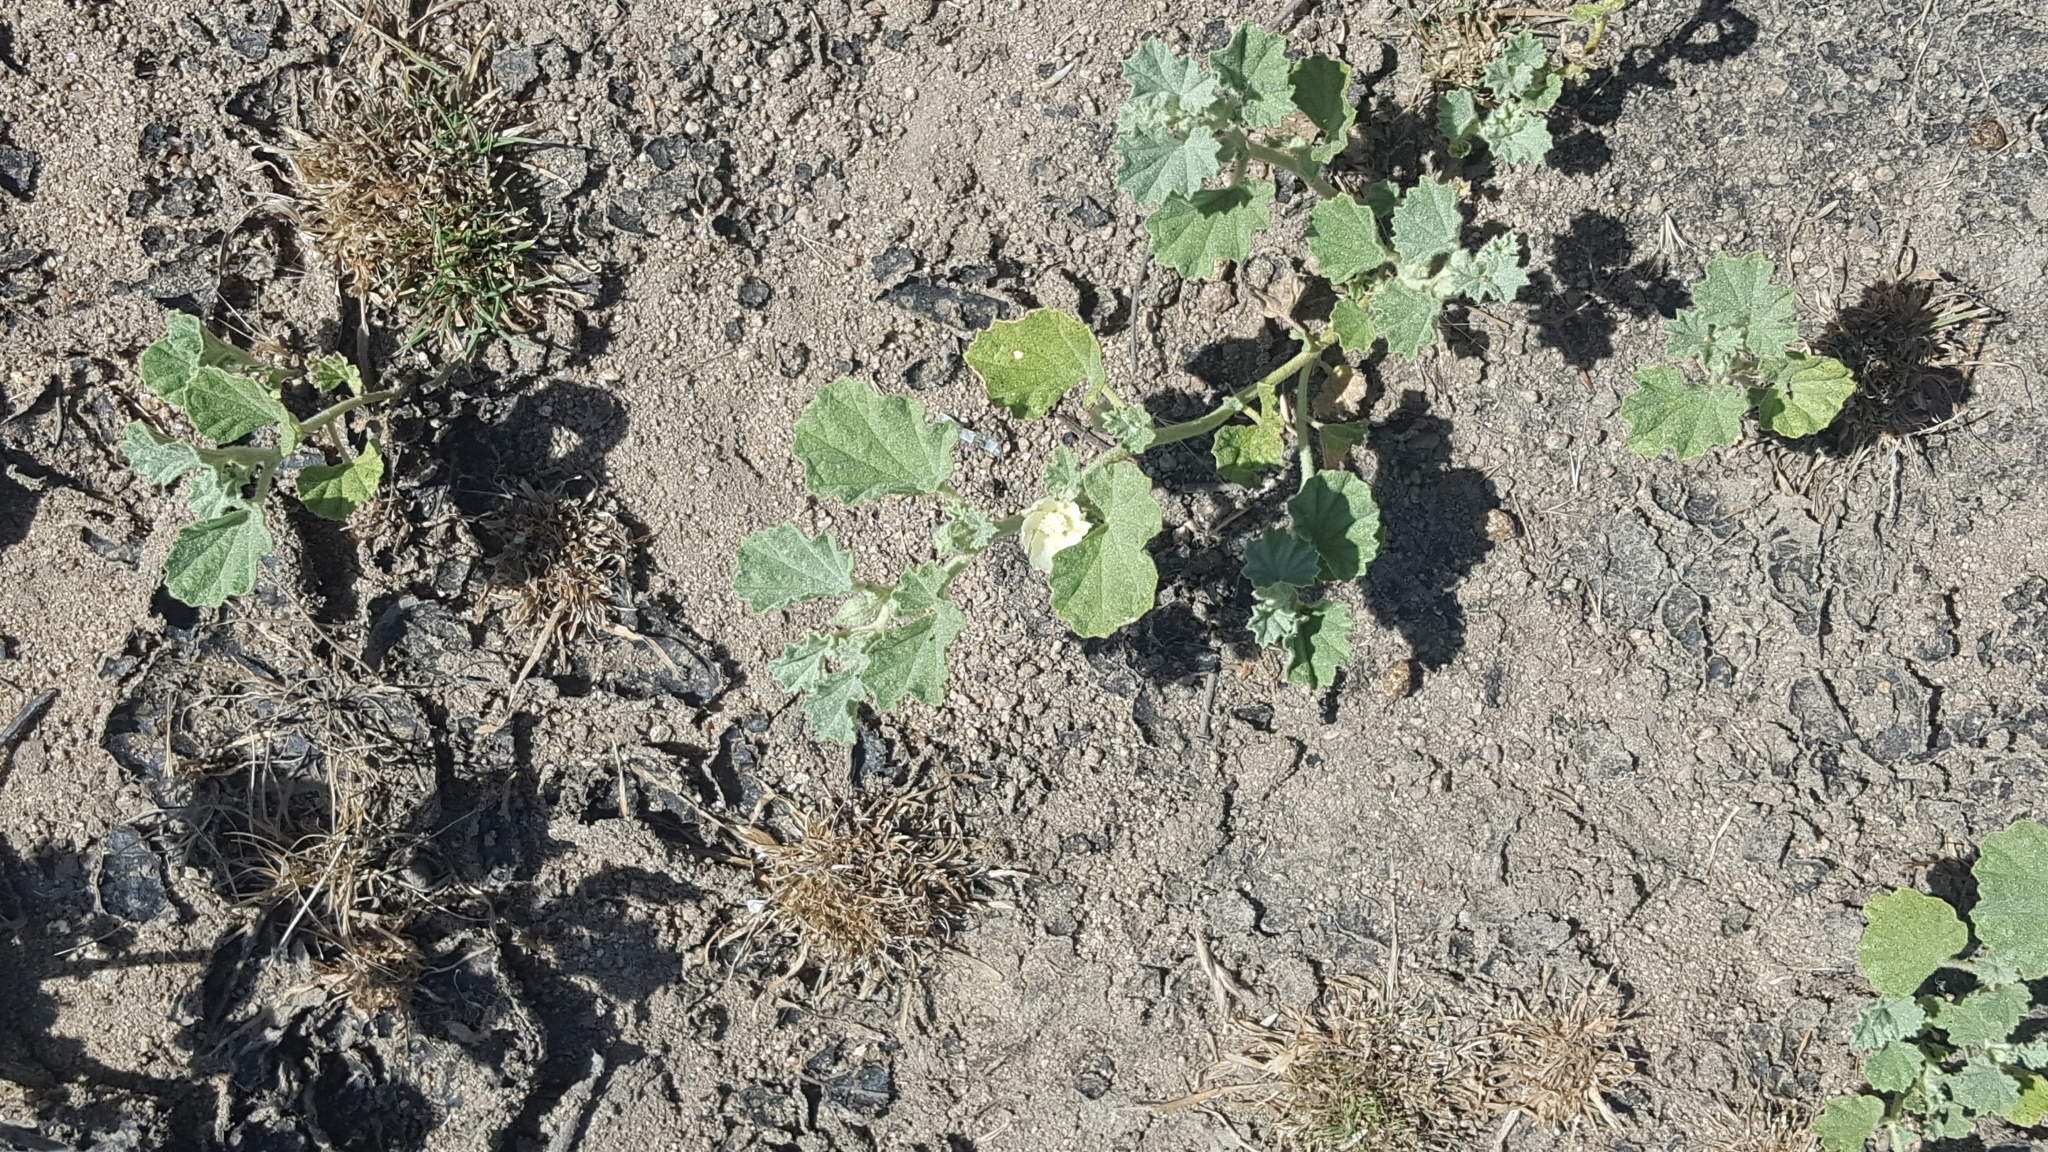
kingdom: Plantae
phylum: Tracheophyta
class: Magnoliopsida
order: Malvales
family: Malvaceae
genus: Malvella
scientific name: Malvella leprosa
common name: Alkali-mallow
